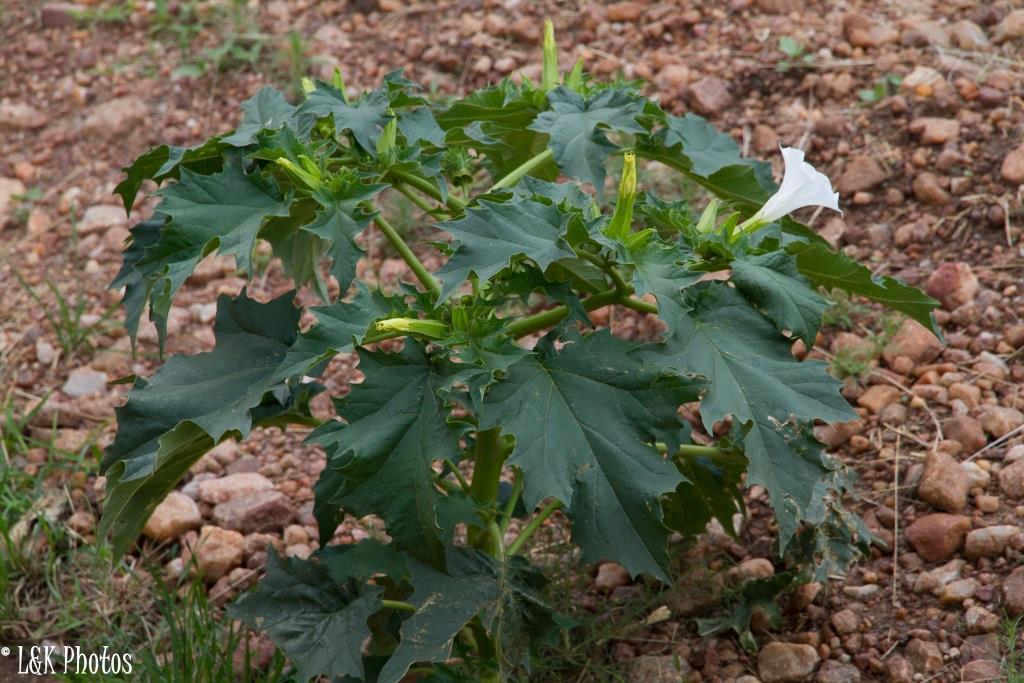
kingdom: Plantae
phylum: Tracheophyta
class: Magnoliopsida
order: Solanales
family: Solanaceae
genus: Datura
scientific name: Datura stramonium
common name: Thorn-apple
